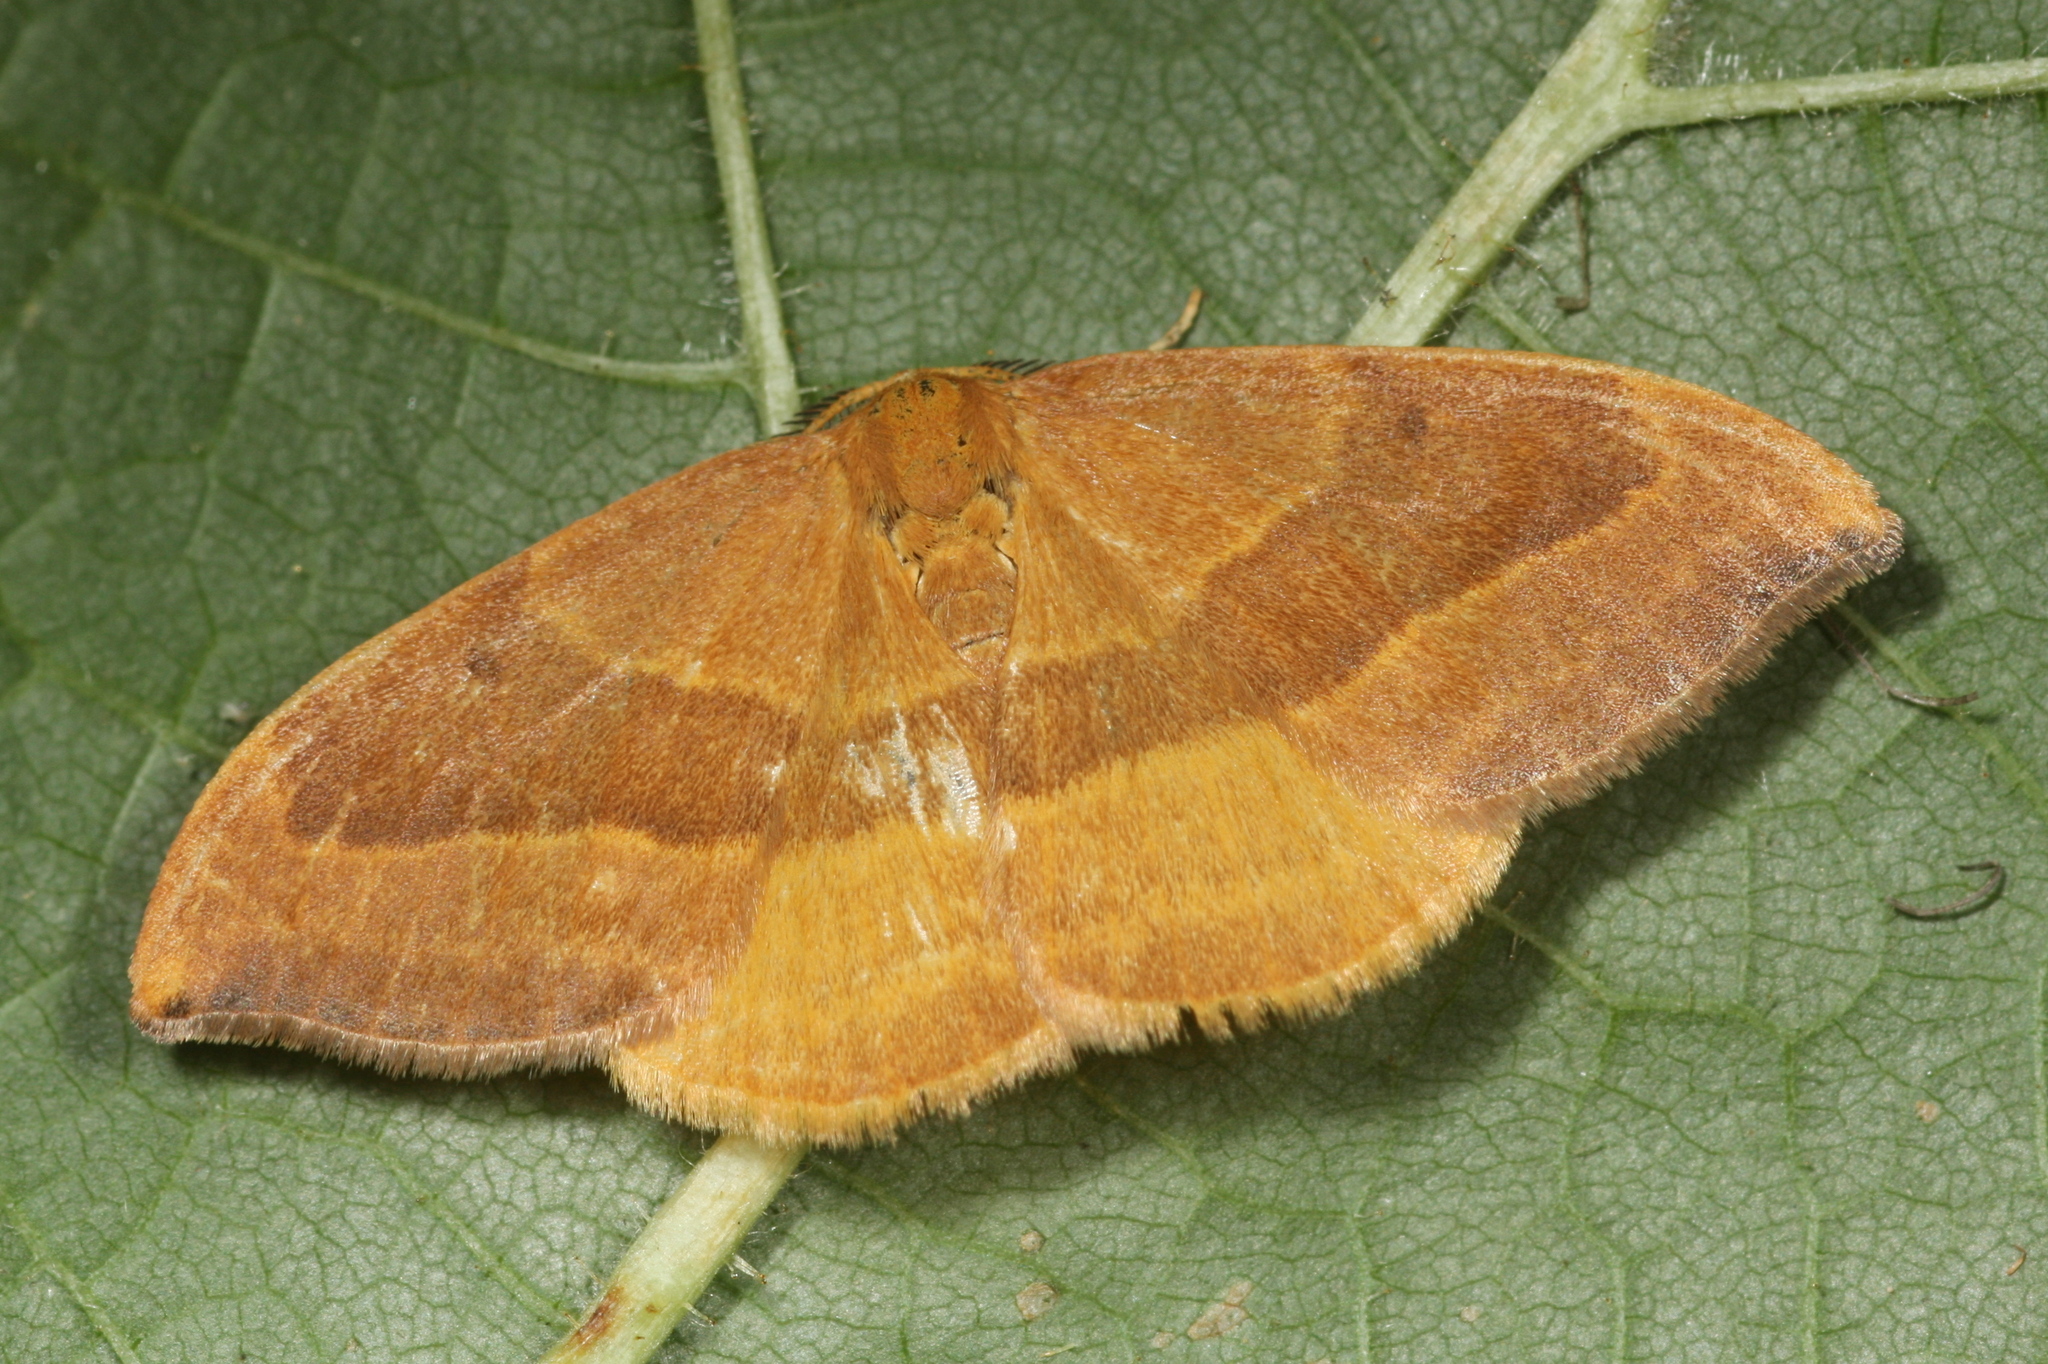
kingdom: Animalia
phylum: Arthropoda
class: Insecta
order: Lepidoptera
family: Drepanidae
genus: Watsonalla
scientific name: Watsonalla cultraria
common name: Barred hook-tip
